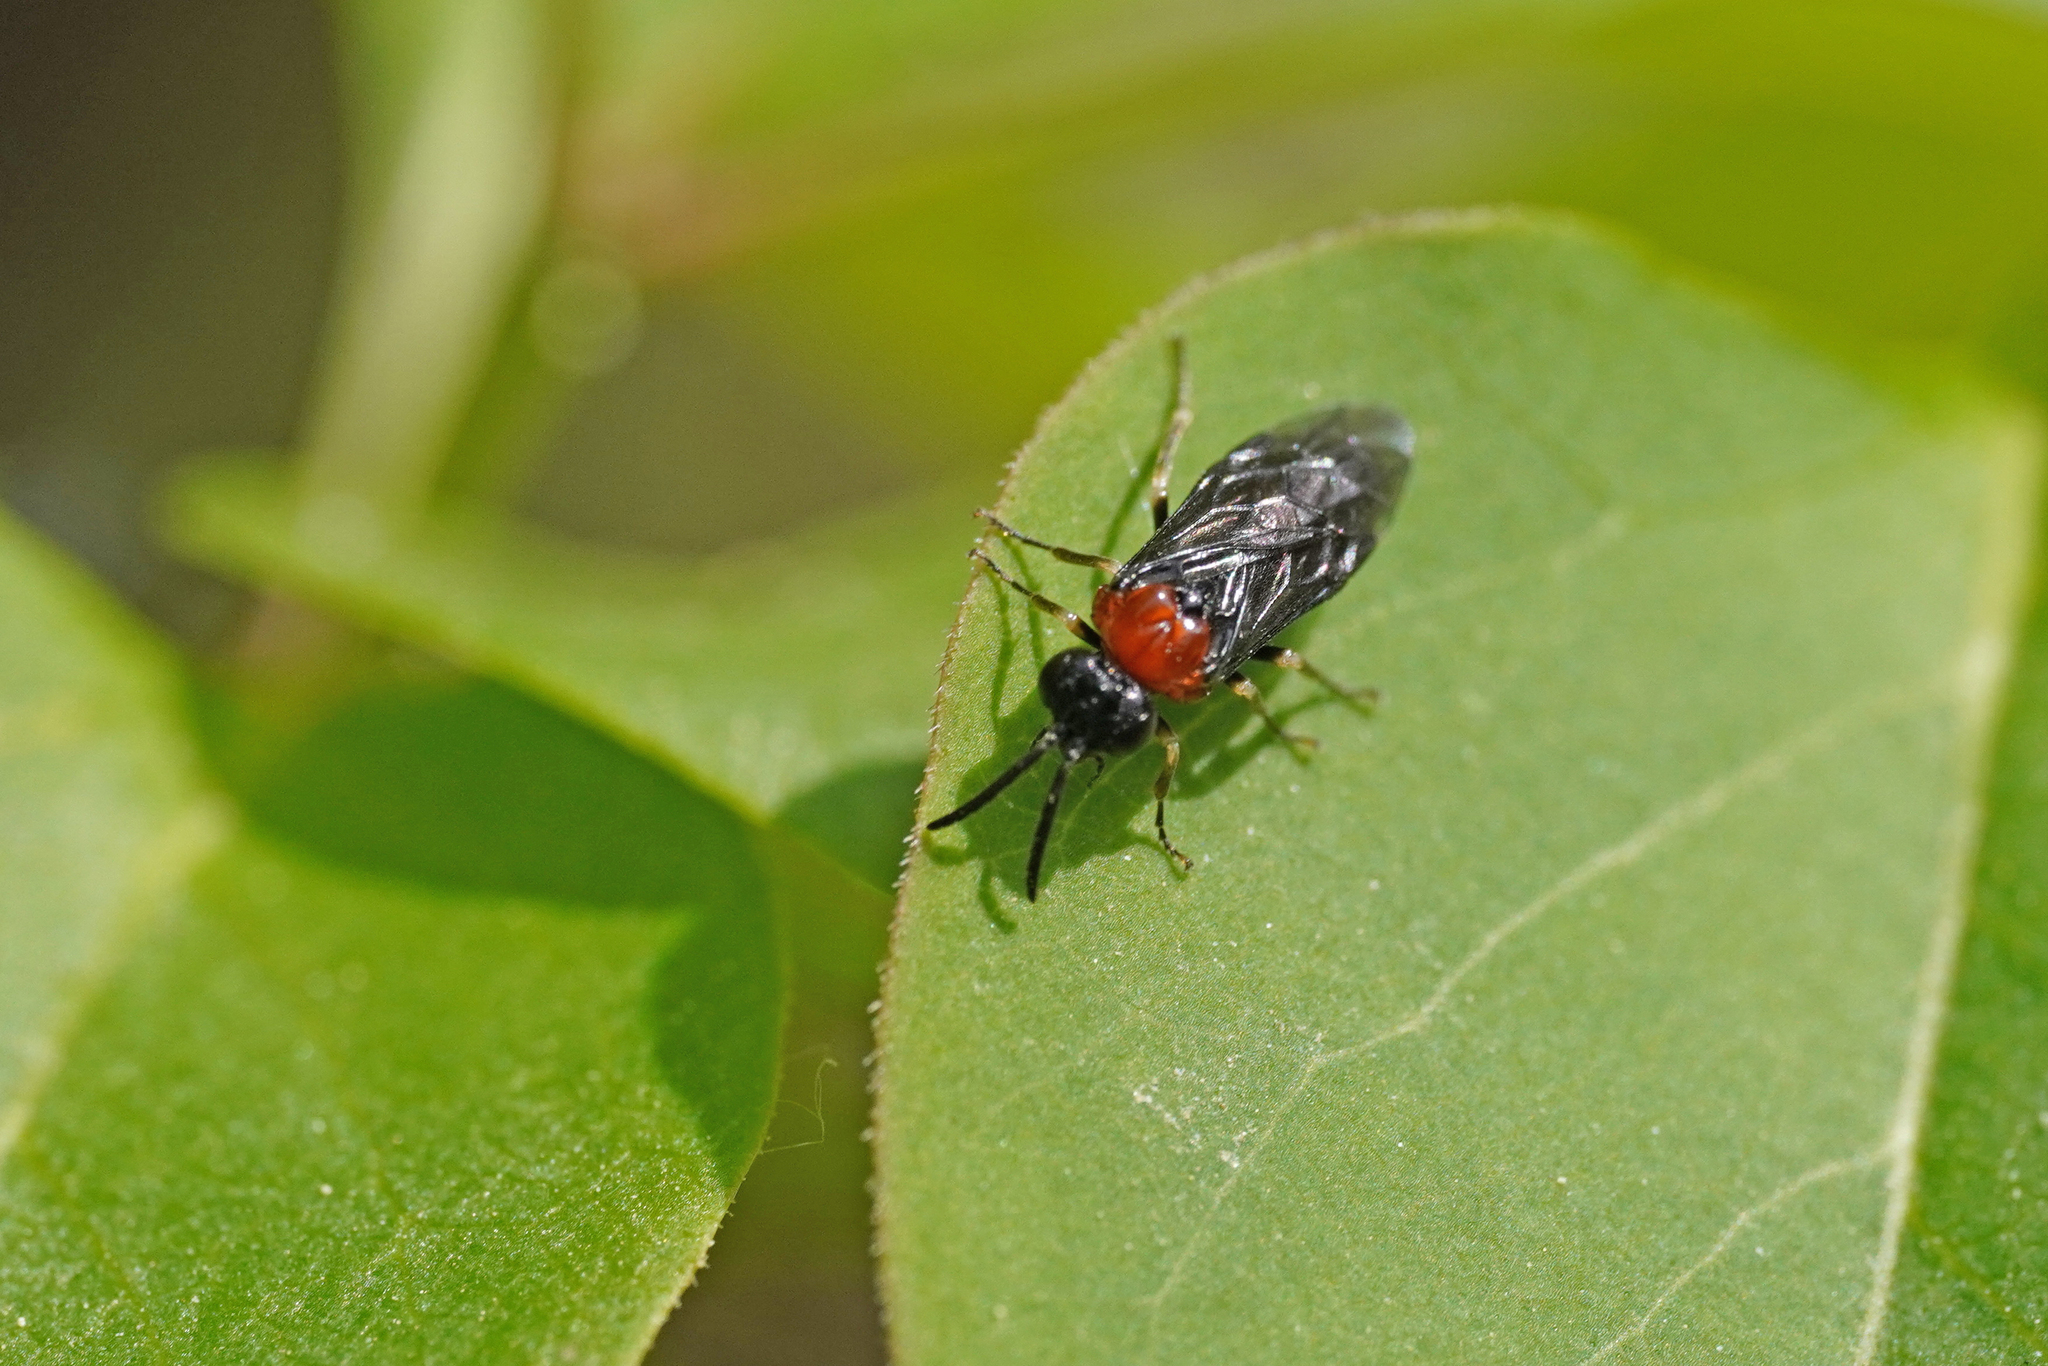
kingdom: Animalia
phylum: Arthropoda
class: Insecta
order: Hymenoptera
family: Tenthredinidae
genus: Eutomostethus
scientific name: Eutomostethus ephippium
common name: Tenthredid wasp
